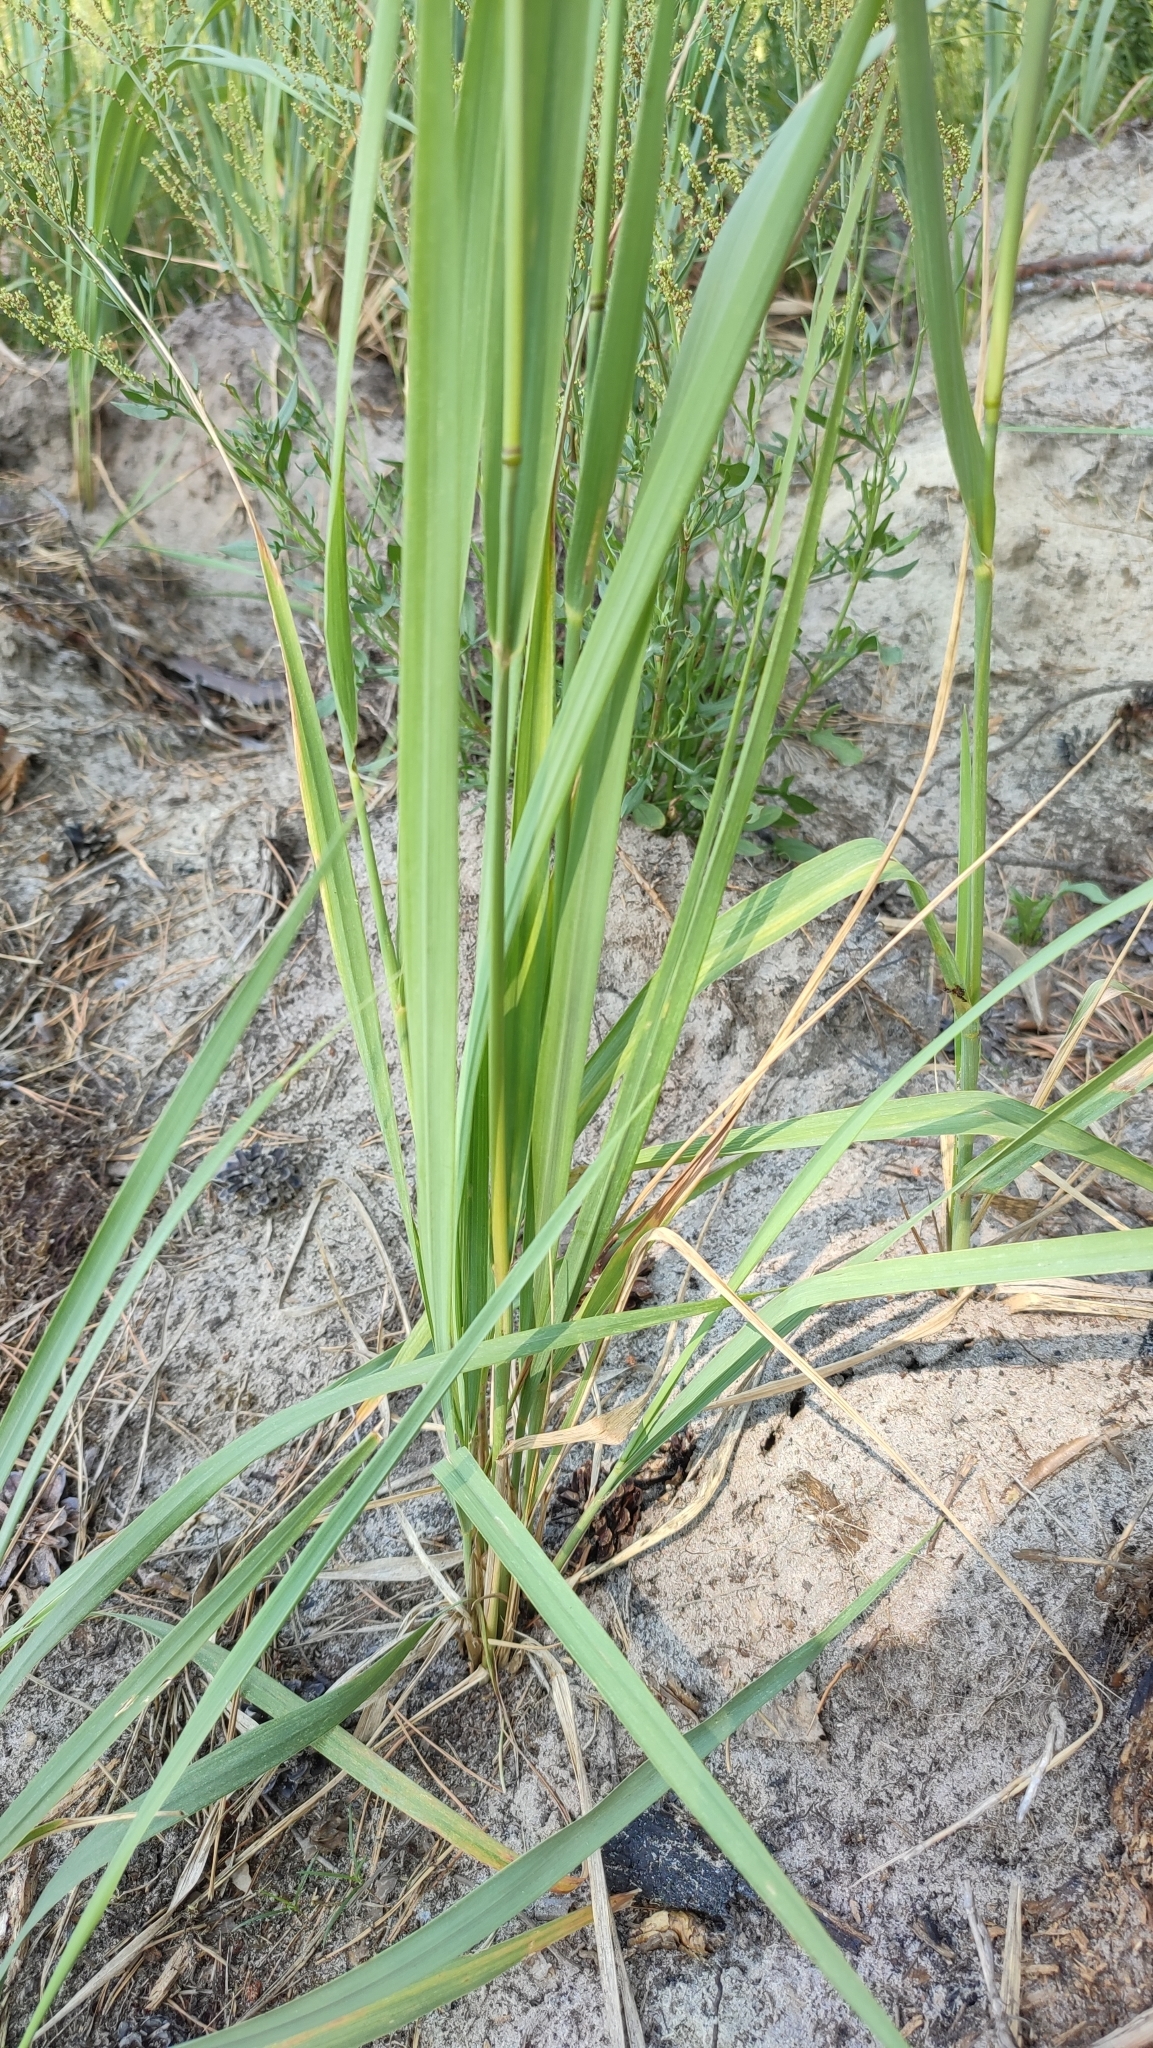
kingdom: Plantae
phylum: Tracheophyta
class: Liliopsida
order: Poales
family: Poaceae
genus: Calamagrostis
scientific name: Calamagrostis epigejos
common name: Wood small-reed
